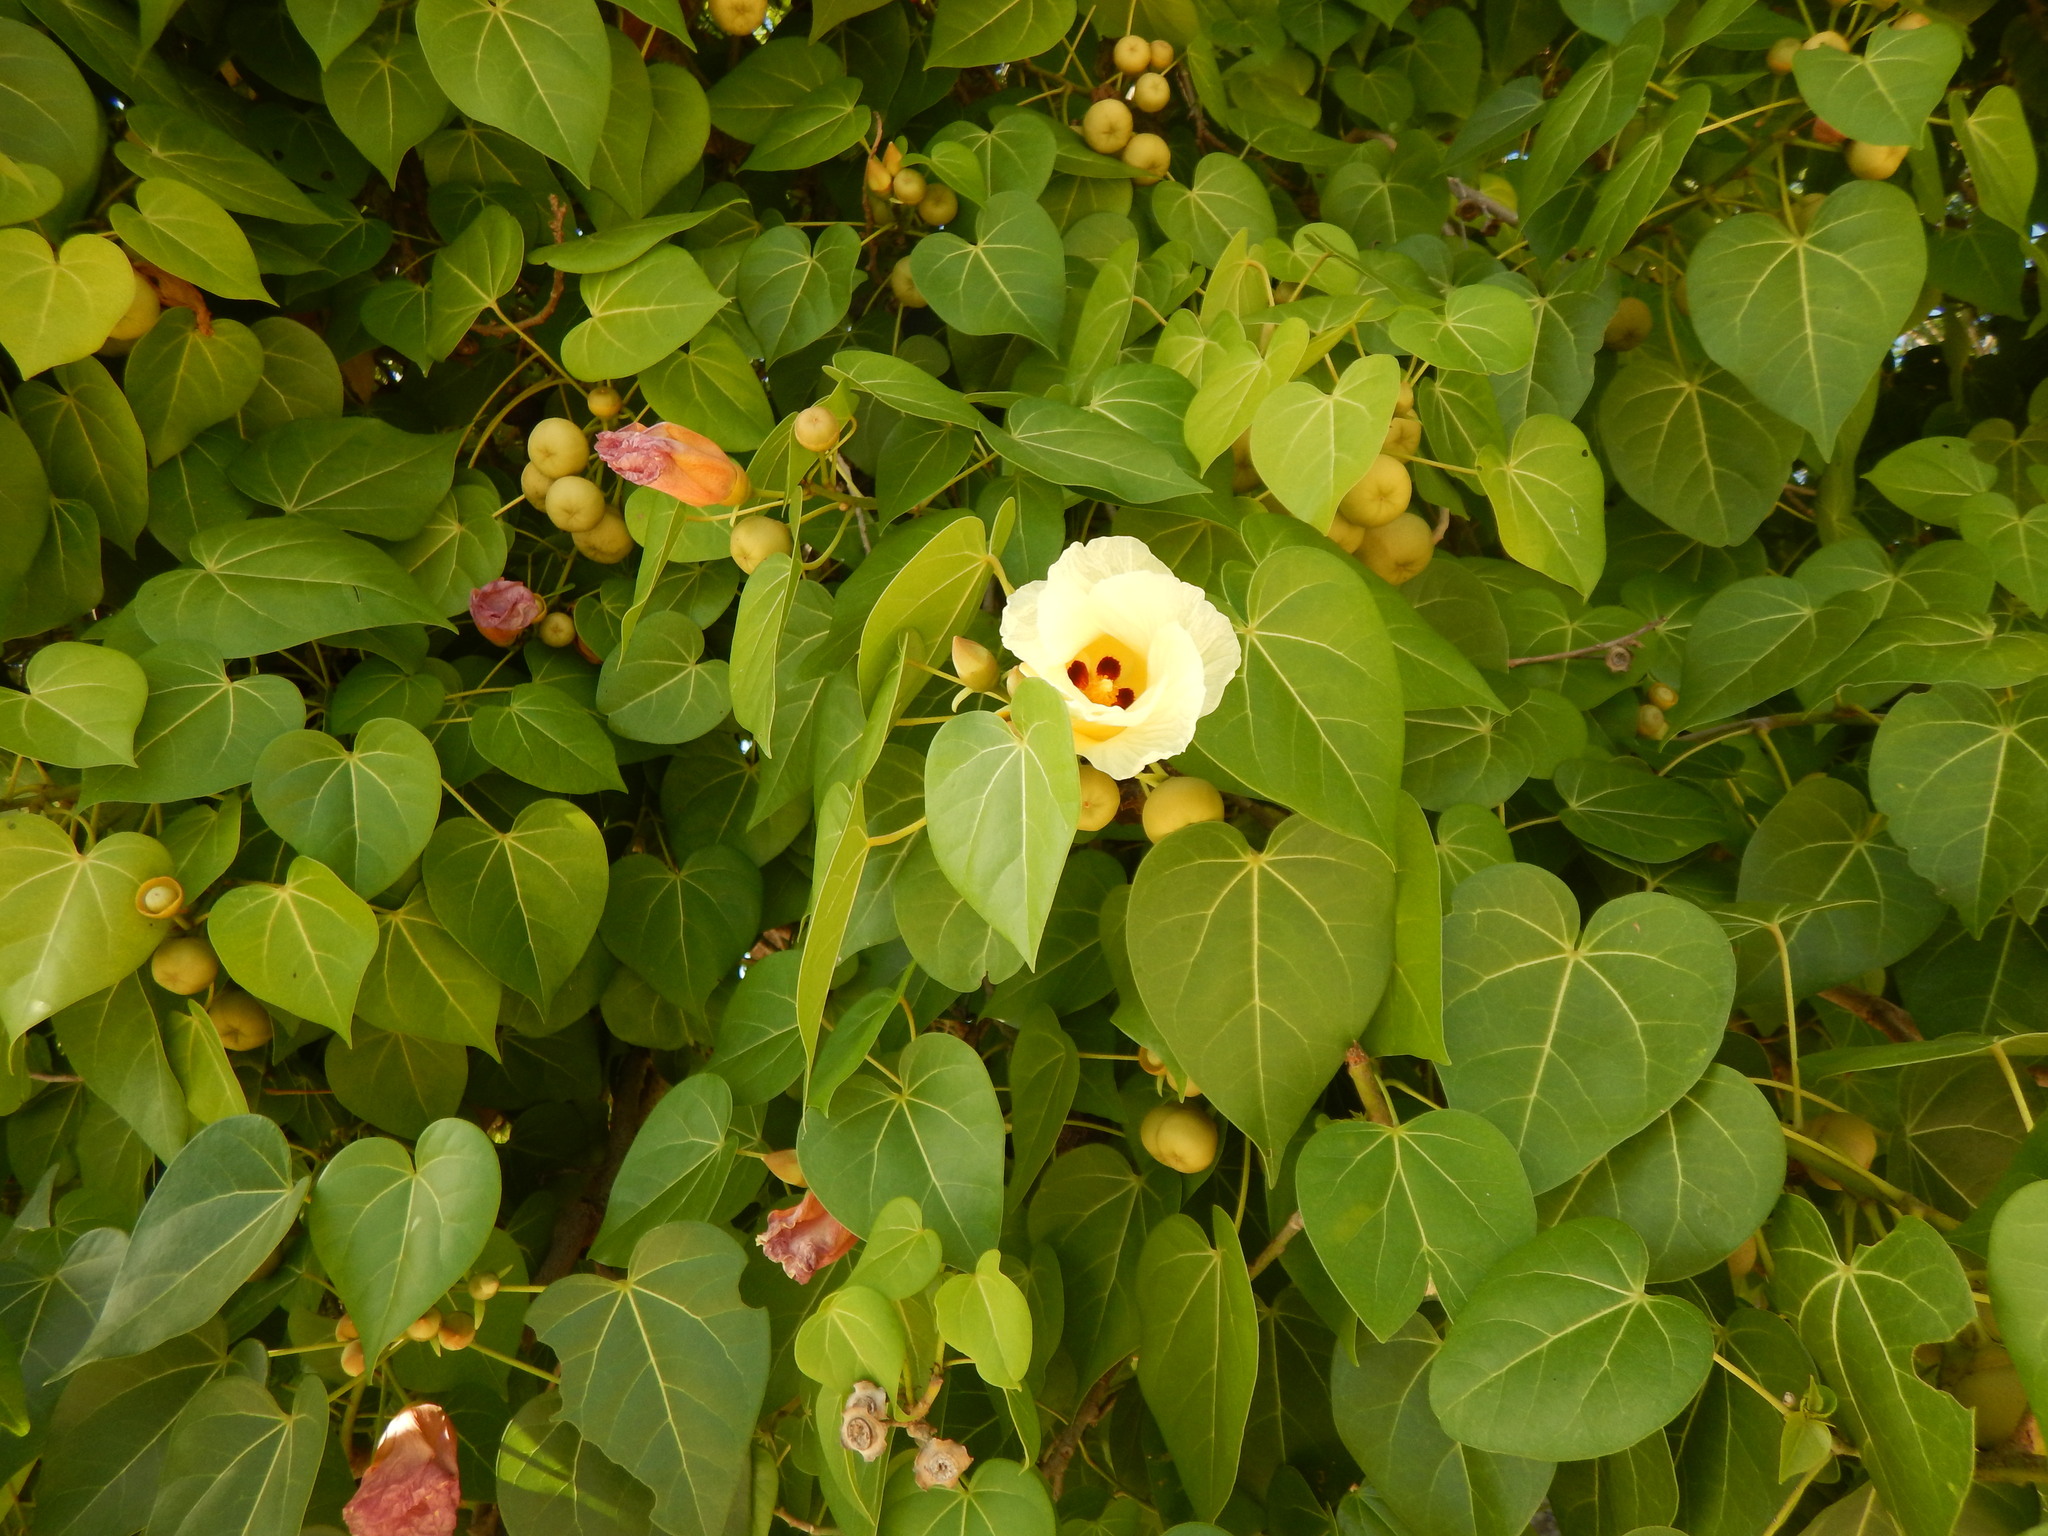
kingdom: Plantae
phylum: Tracheophyta
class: Magnoliopsida
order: Malvales
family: Malvaceae
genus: Thespesia
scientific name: Thespesia populnea
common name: Seaside mahoe
